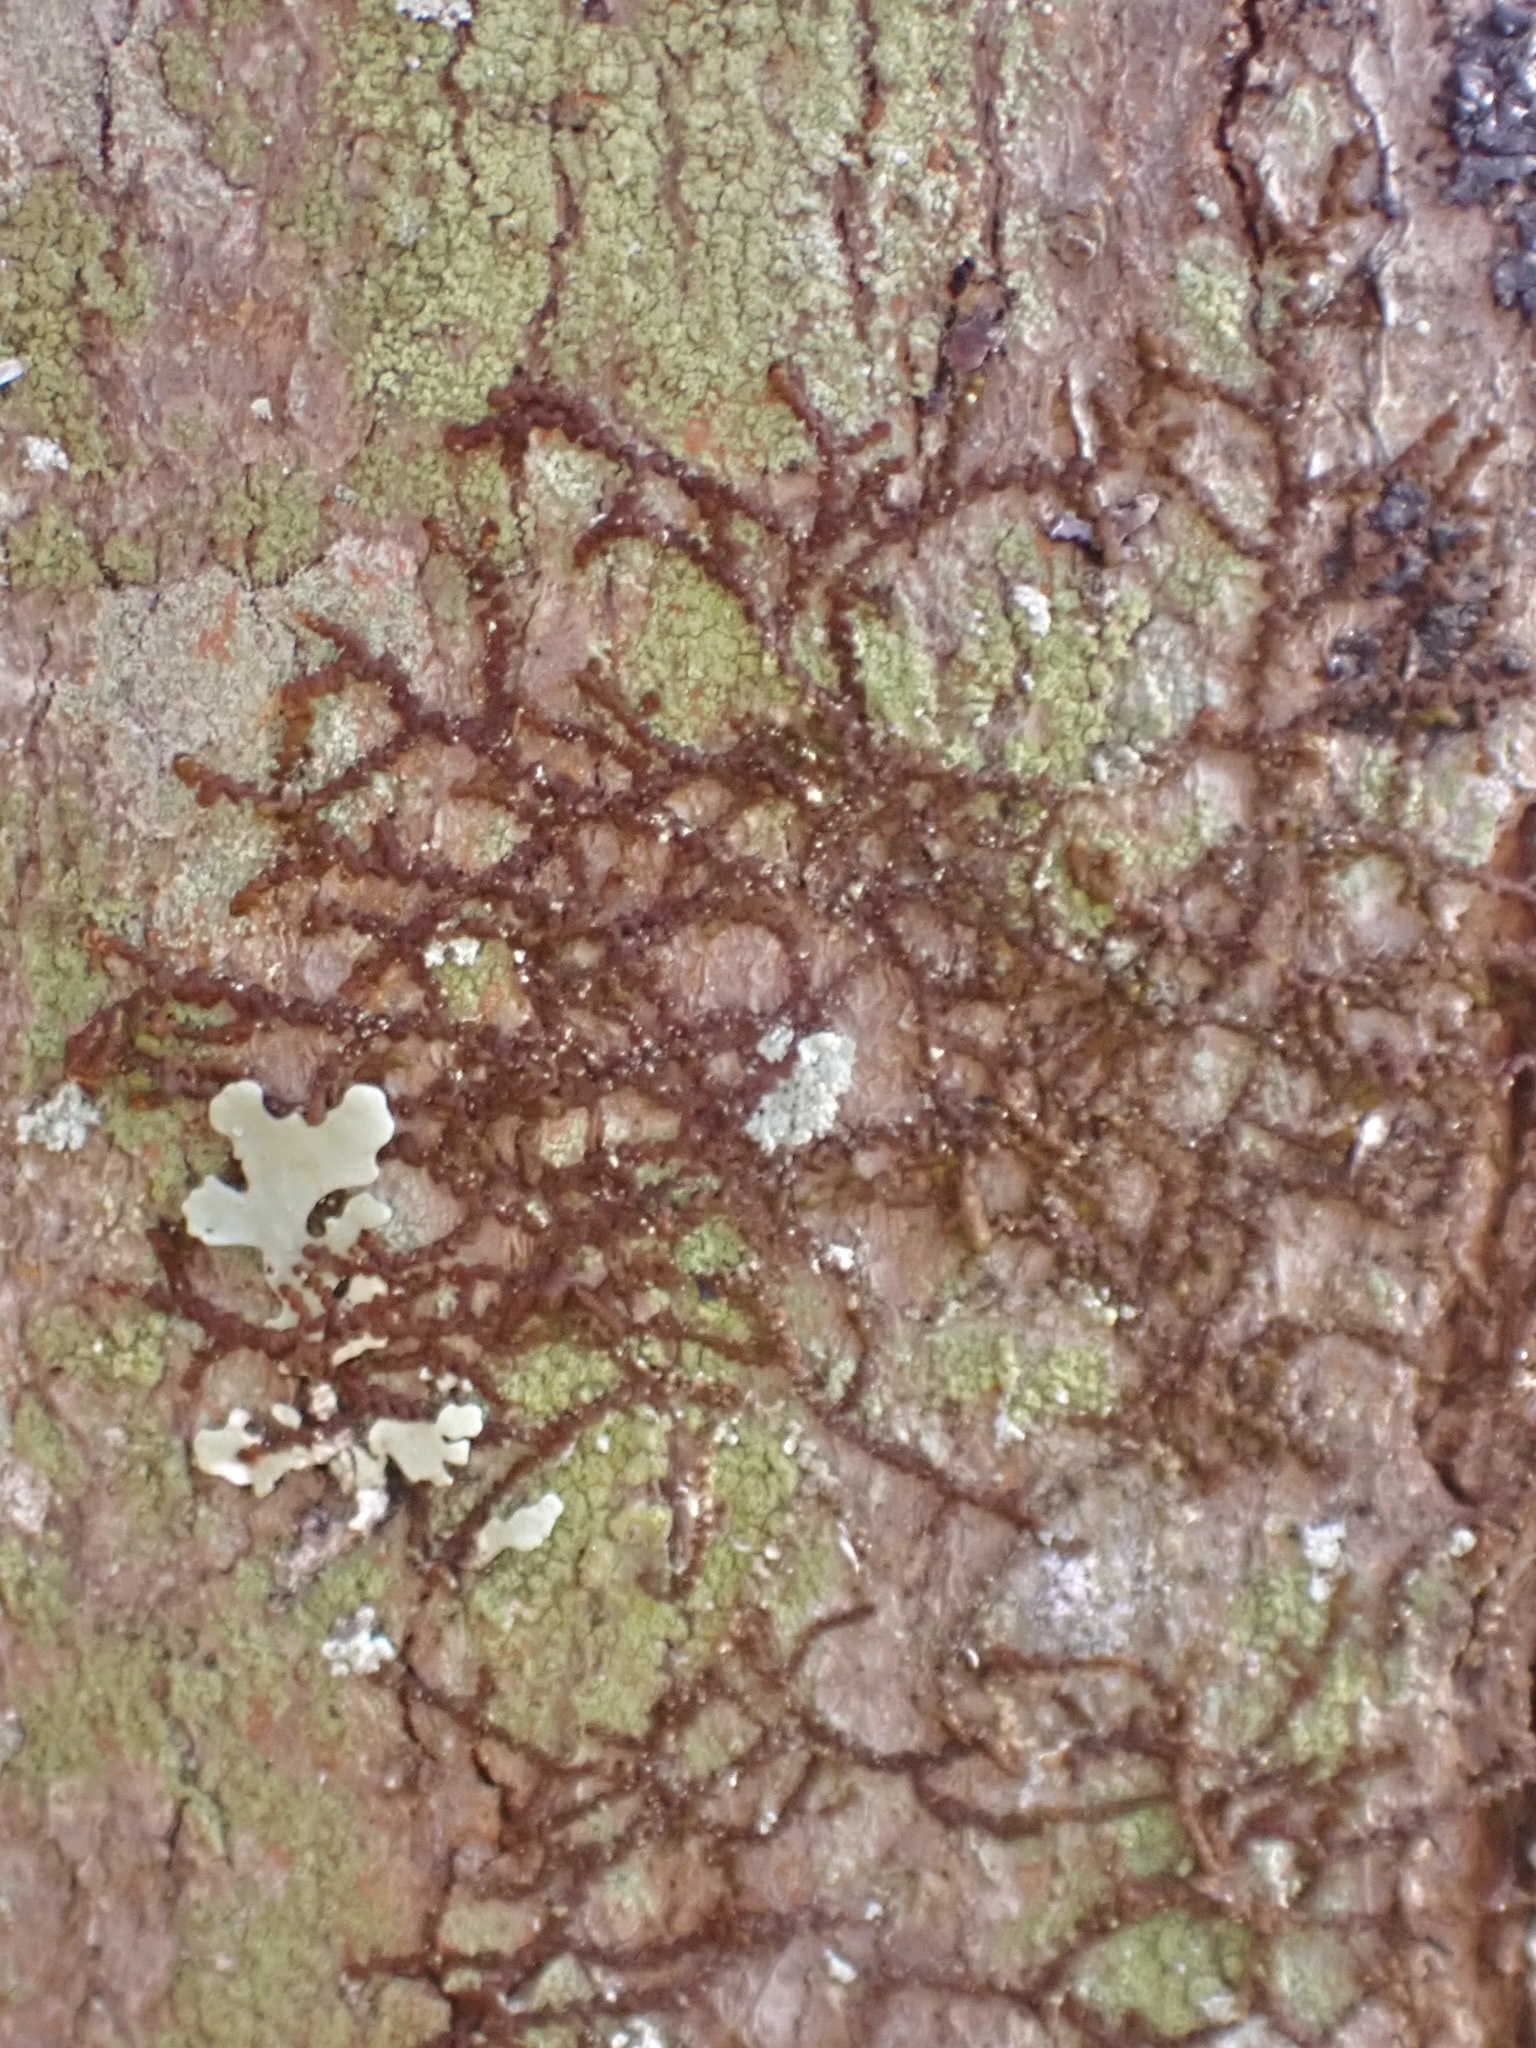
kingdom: Plantae
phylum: Marchantiophyta
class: Jungermanniopsida
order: Porellales
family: Frullaniaceae
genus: Frullania
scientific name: Frullania eboracensis
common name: New york scalewort
